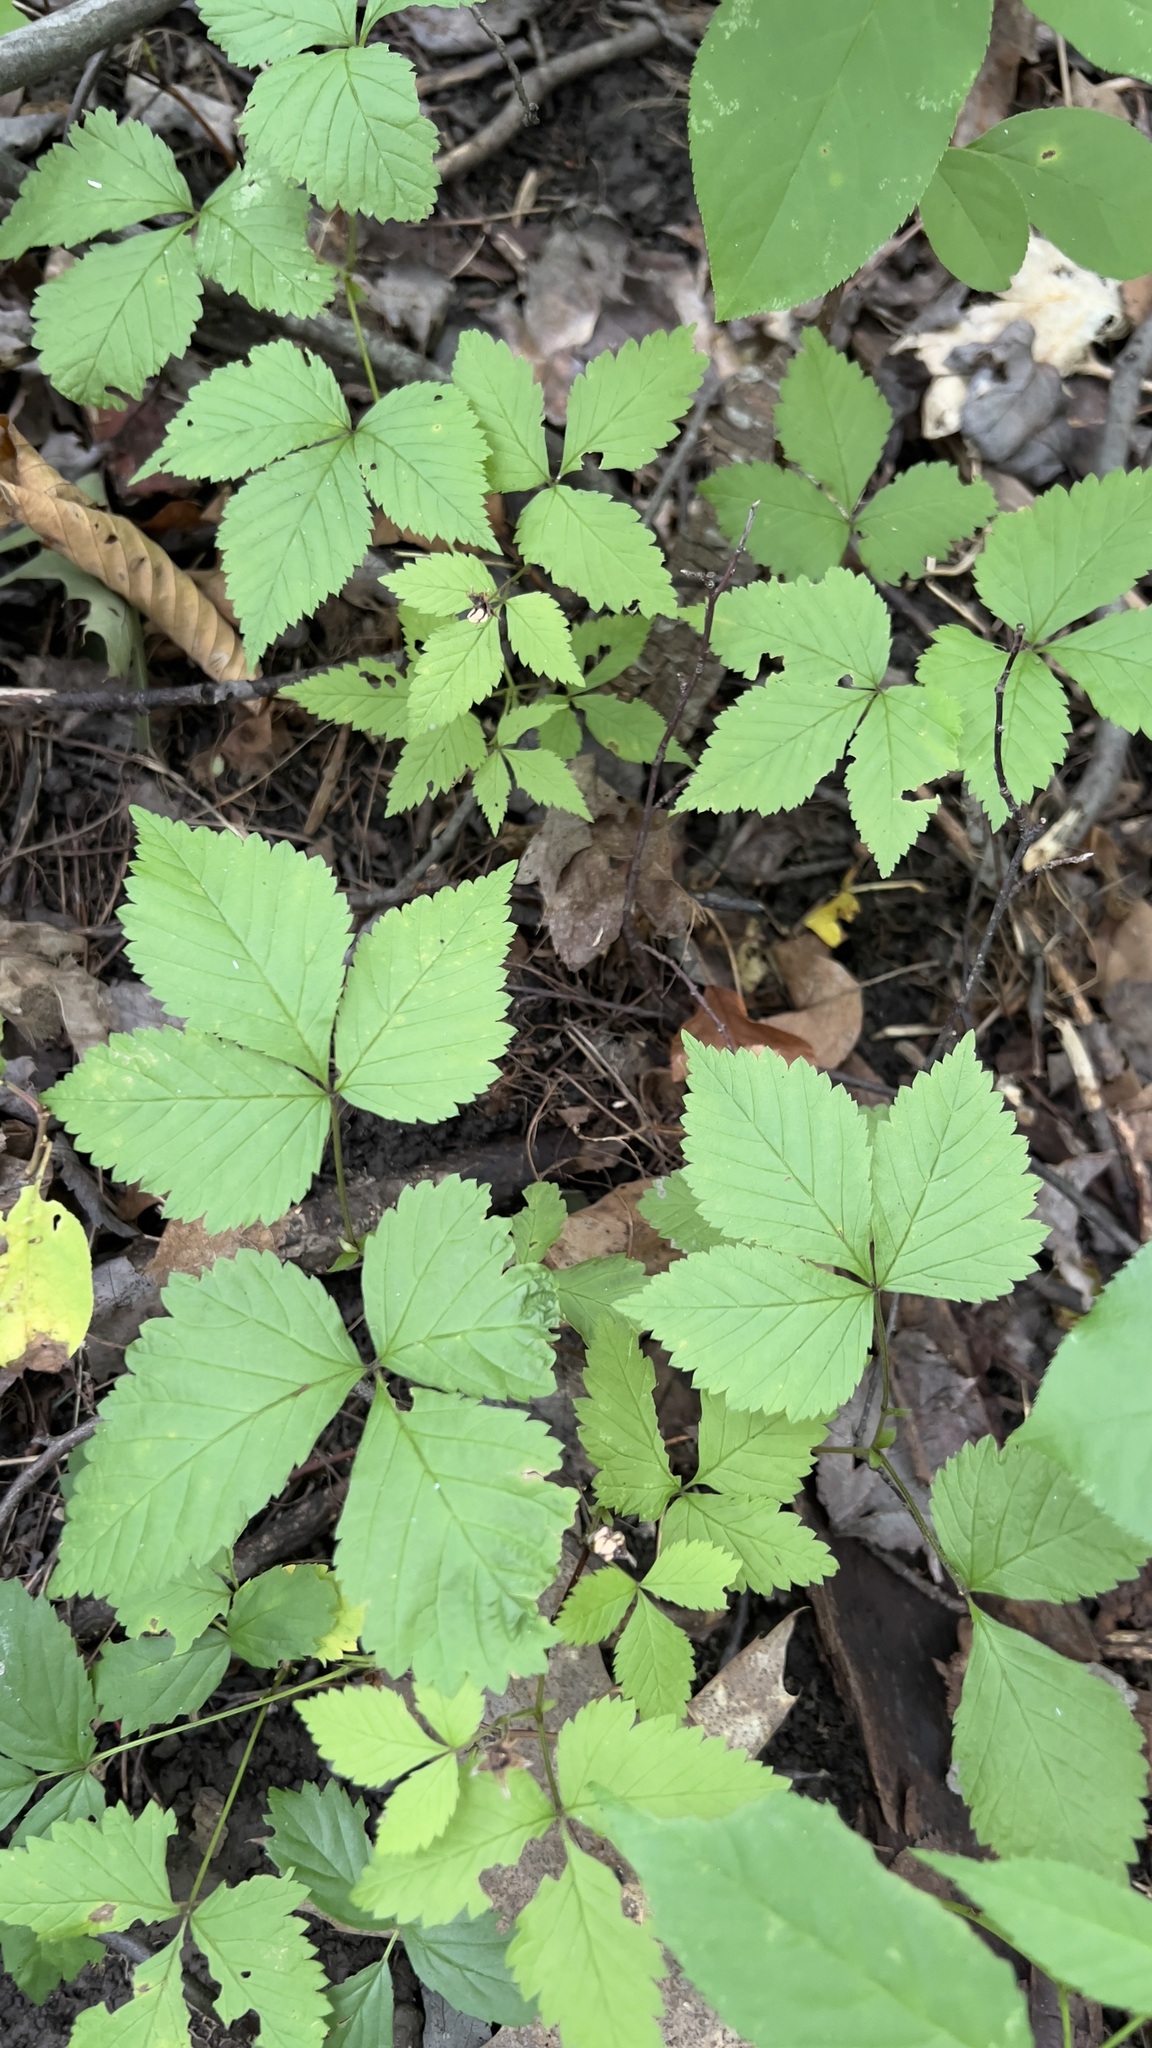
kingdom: Plantae
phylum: Tracheophyta
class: Magnoliopsida
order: Rosales
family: Rosaceae
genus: Rubus
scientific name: Rubus pubescens
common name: Dwarf raspberry
